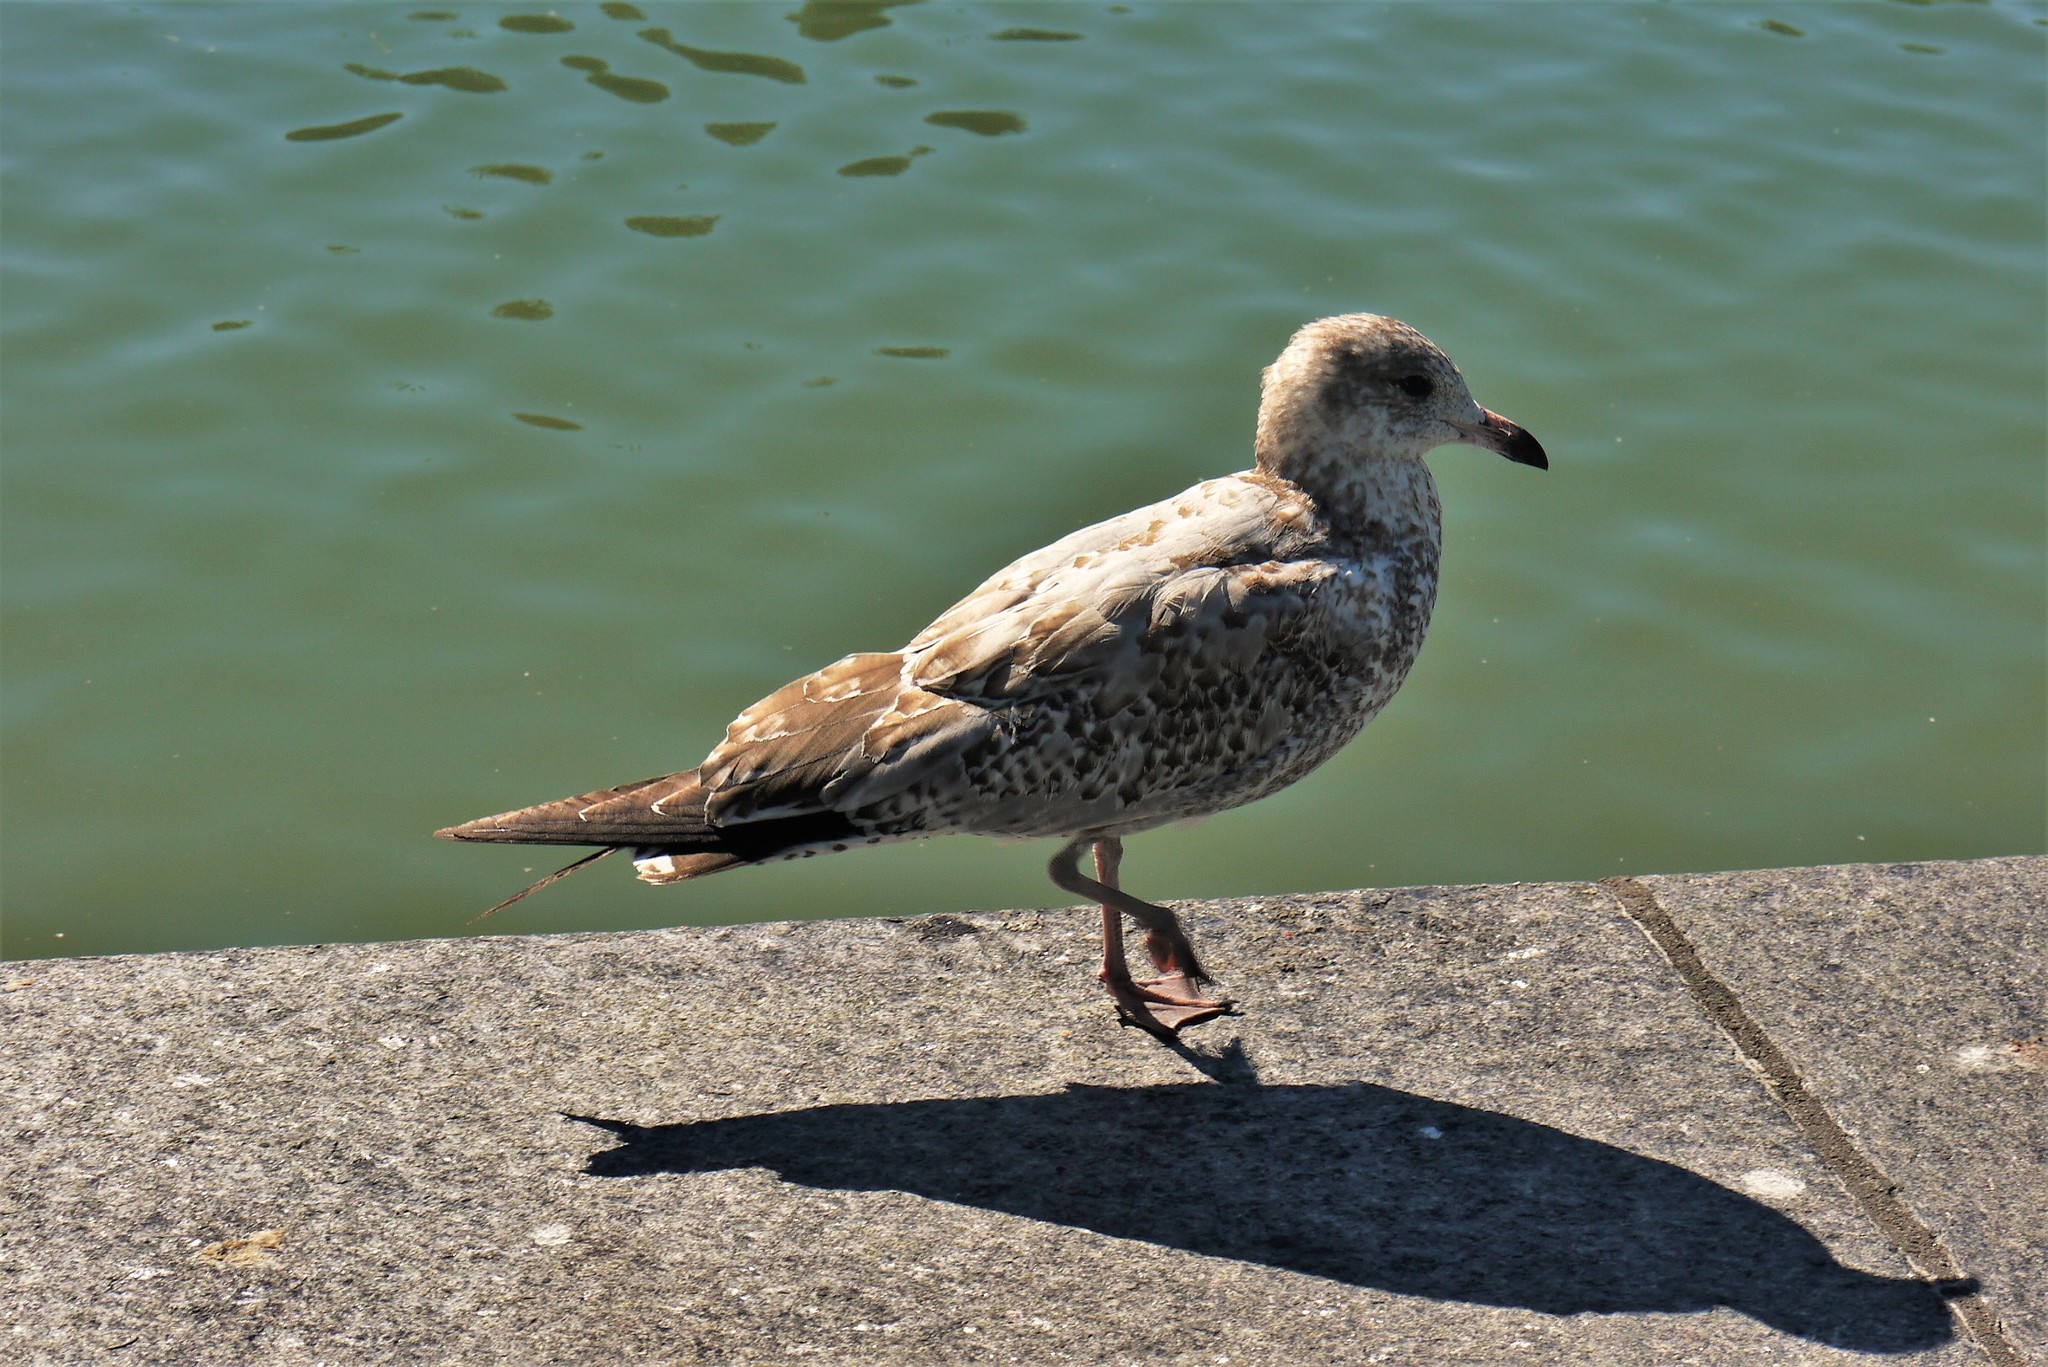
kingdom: Animalia
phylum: Chordata
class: Aves
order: Charadriiformes
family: Laridae
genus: Larus
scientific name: Larus delawarensis
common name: Ring-billed gull
